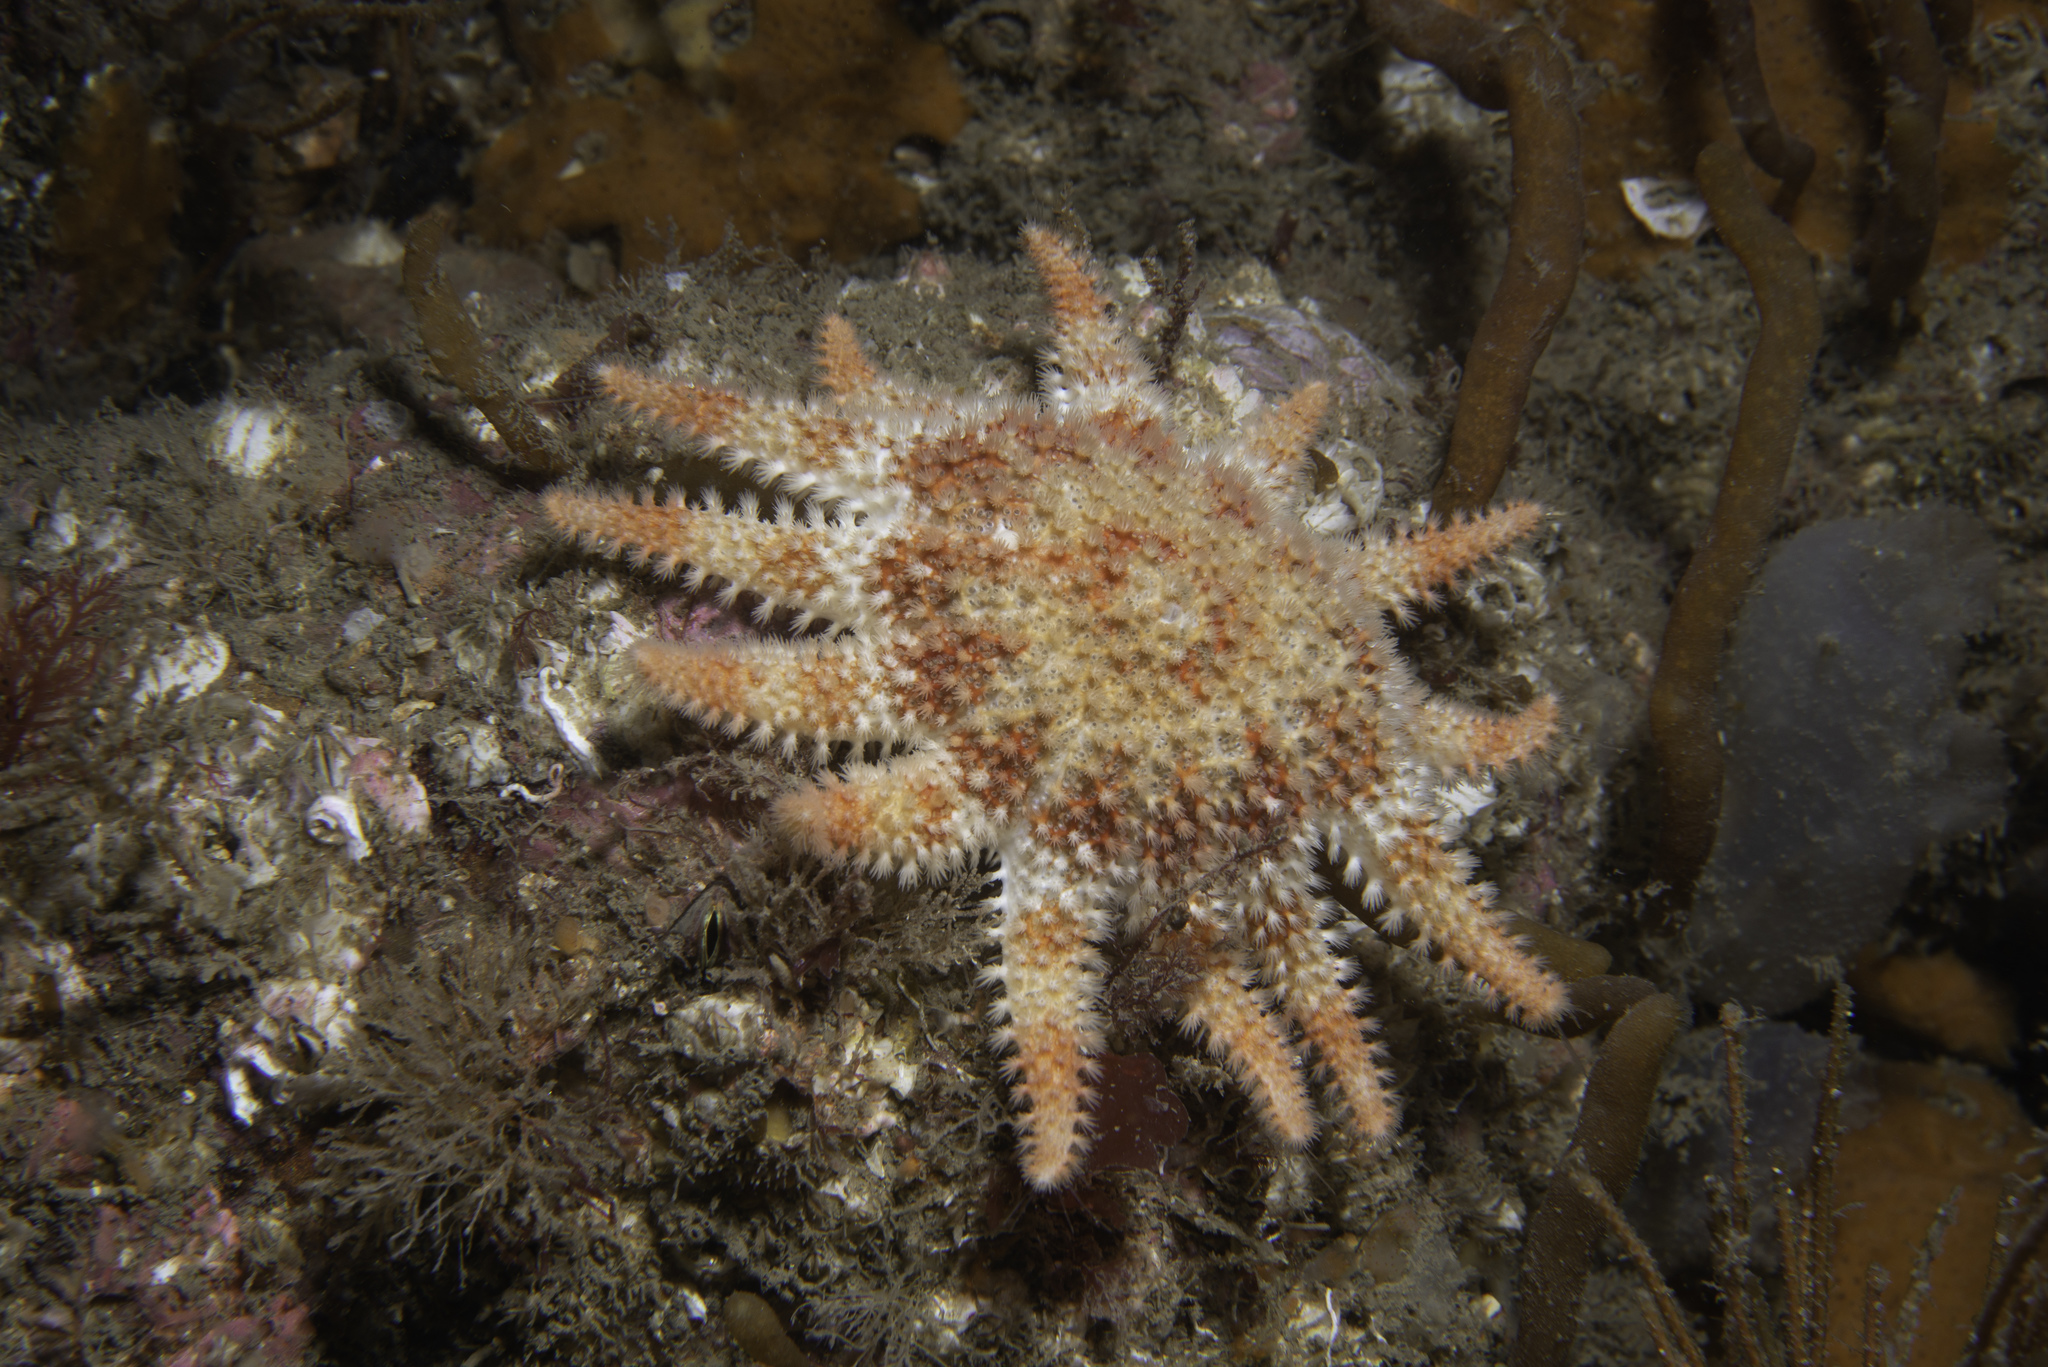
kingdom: Animalia
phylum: Echinodermata
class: Asteroidea
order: Valvatida
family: Solasteridae
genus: Crossaster
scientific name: Crossaster papposus
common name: Common sun star
